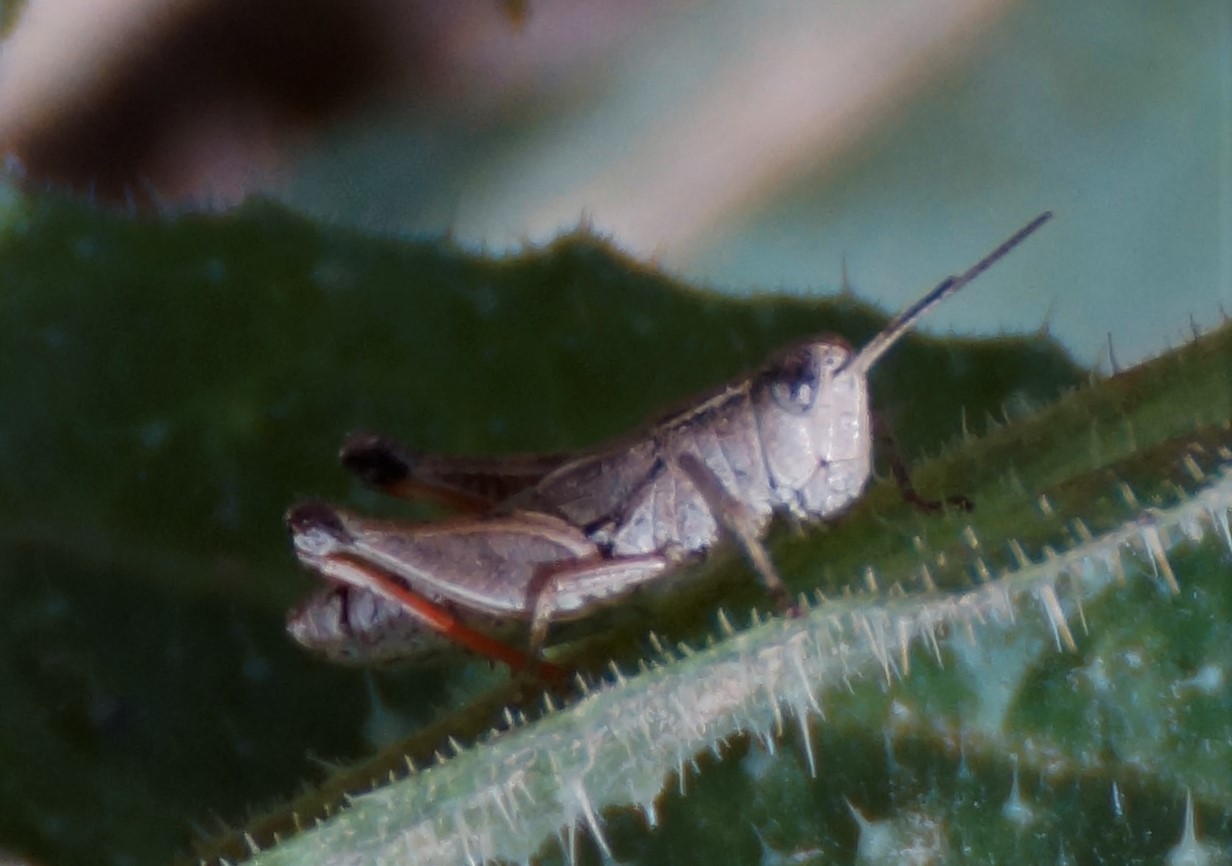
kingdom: Animalia
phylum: Arthropoda
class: Insecta
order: Orthoptera
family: Acrididae
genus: Phaulacridium
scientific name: Phaulacridium vittatum
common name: Wingless grasshopper
